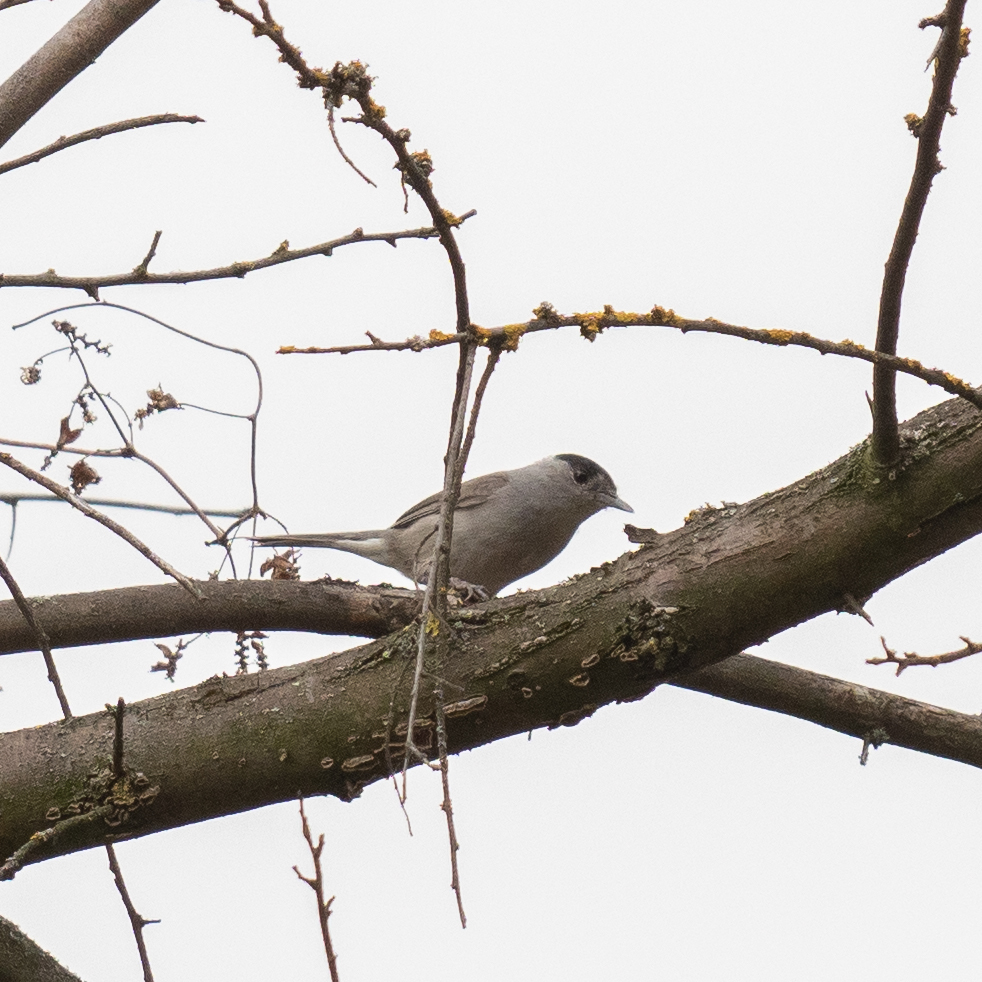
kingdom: Animalia
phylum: Chordata
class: Aves
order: Passeriformes
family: Sylviidae
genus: Sylvia
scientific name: Sylvia atricapilla
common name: Eurasian blackcap
